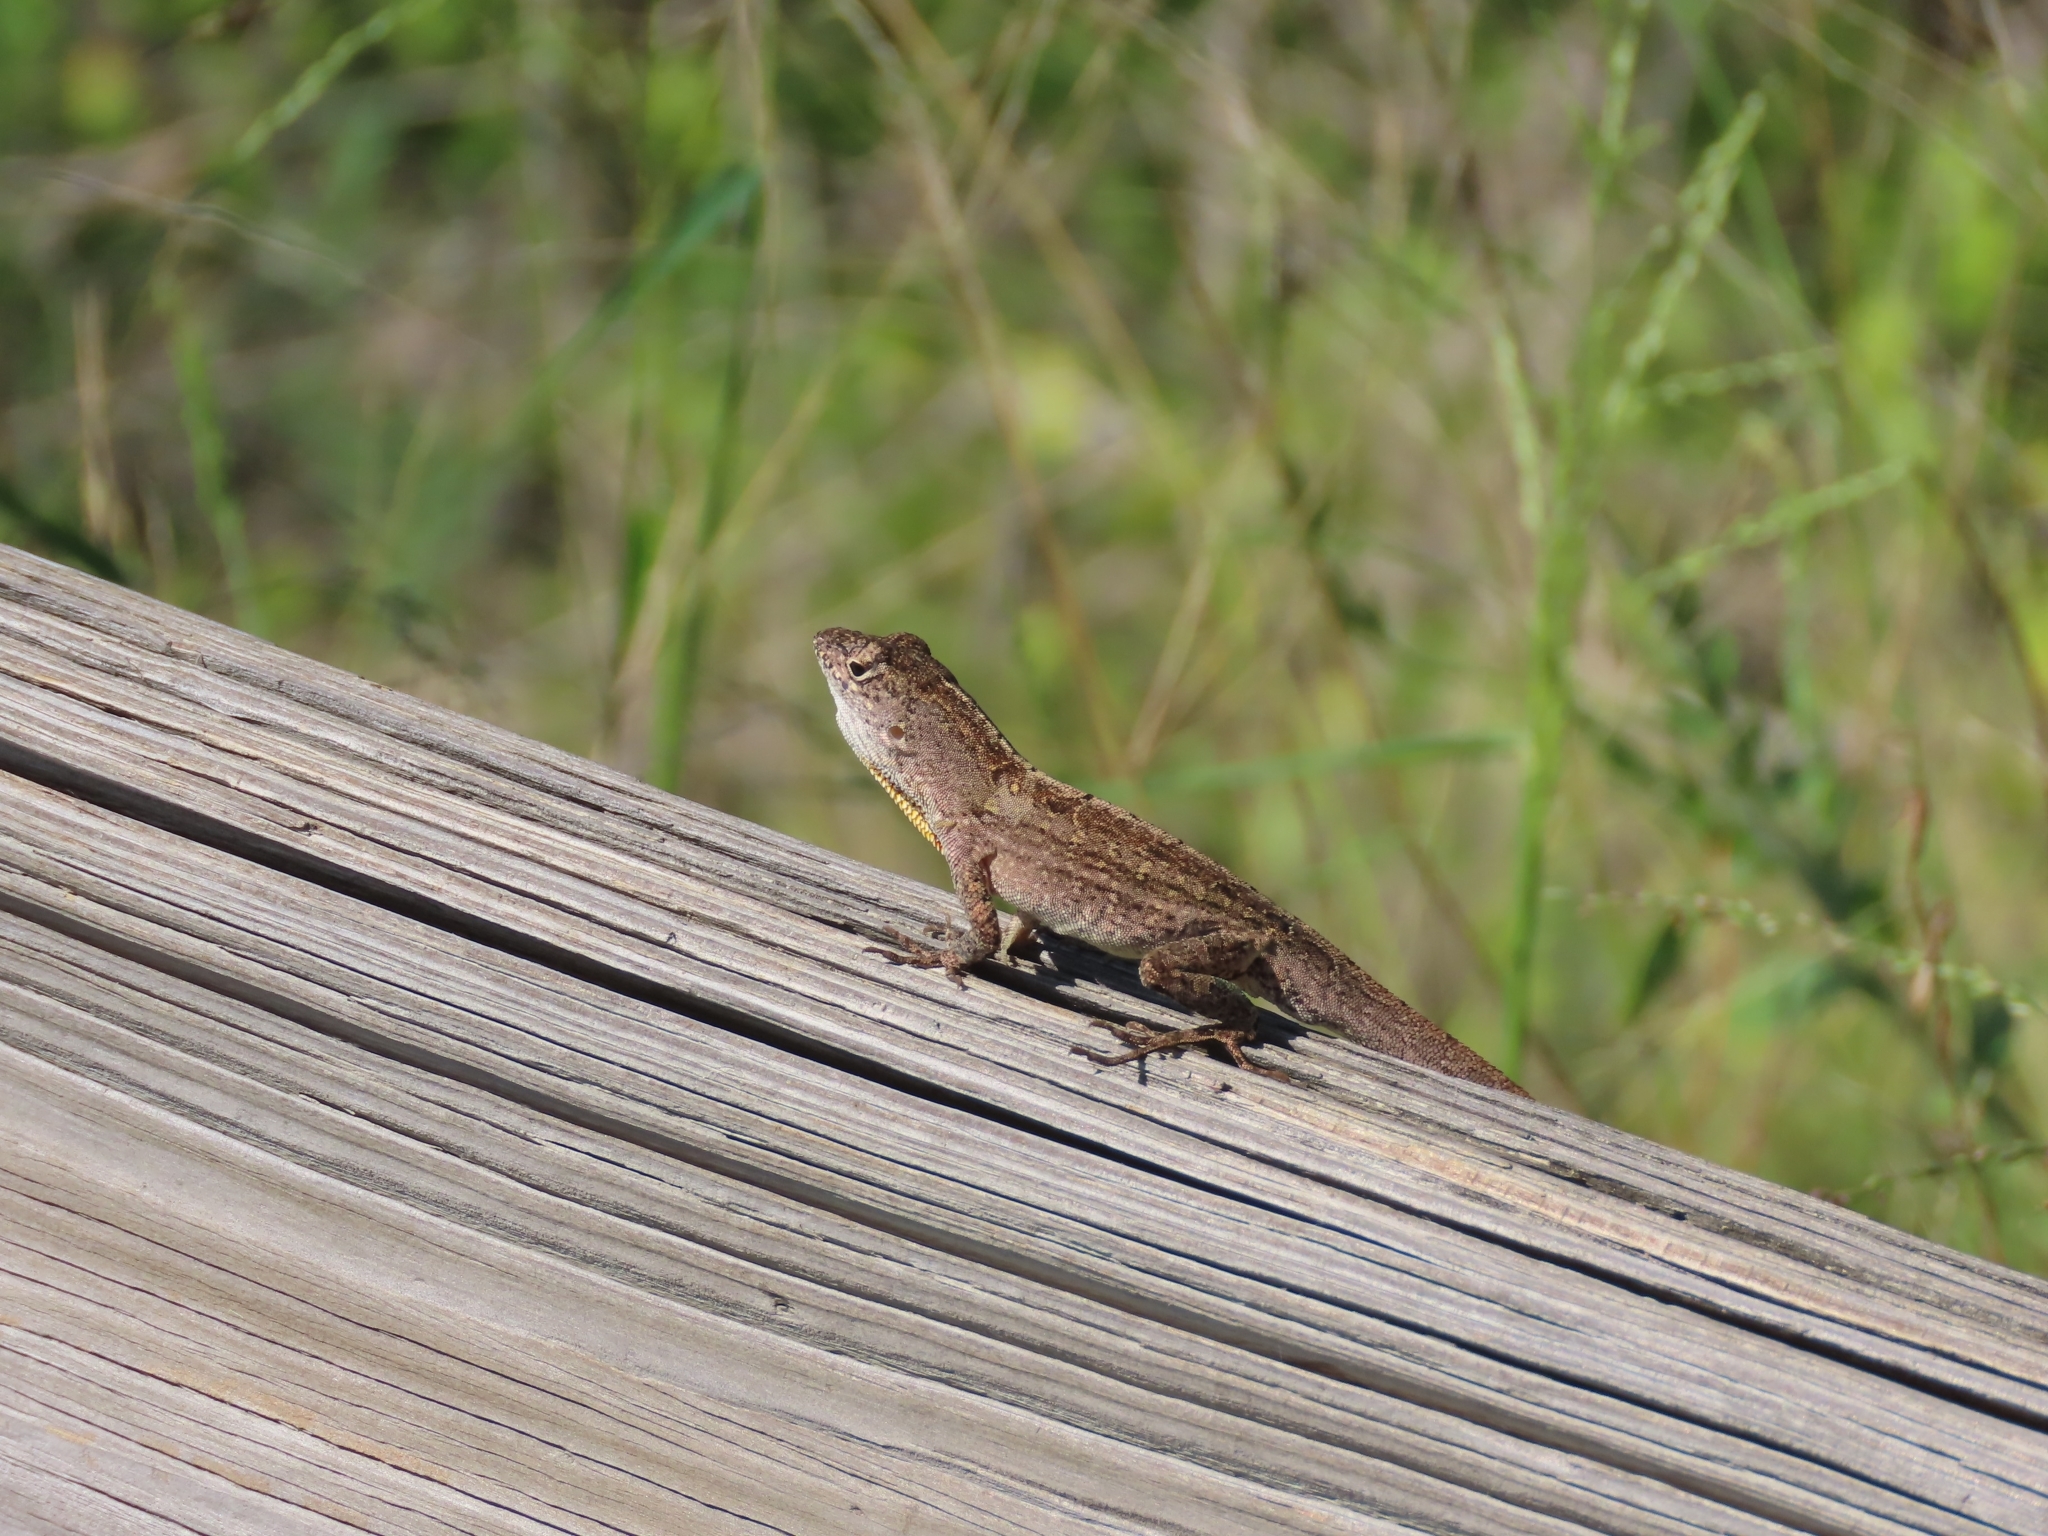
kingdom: Animalia
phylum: Chordata
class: Squamata
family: Dactyloidae
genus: Anolis
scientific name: Anolis sagrei
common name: Brown anole
